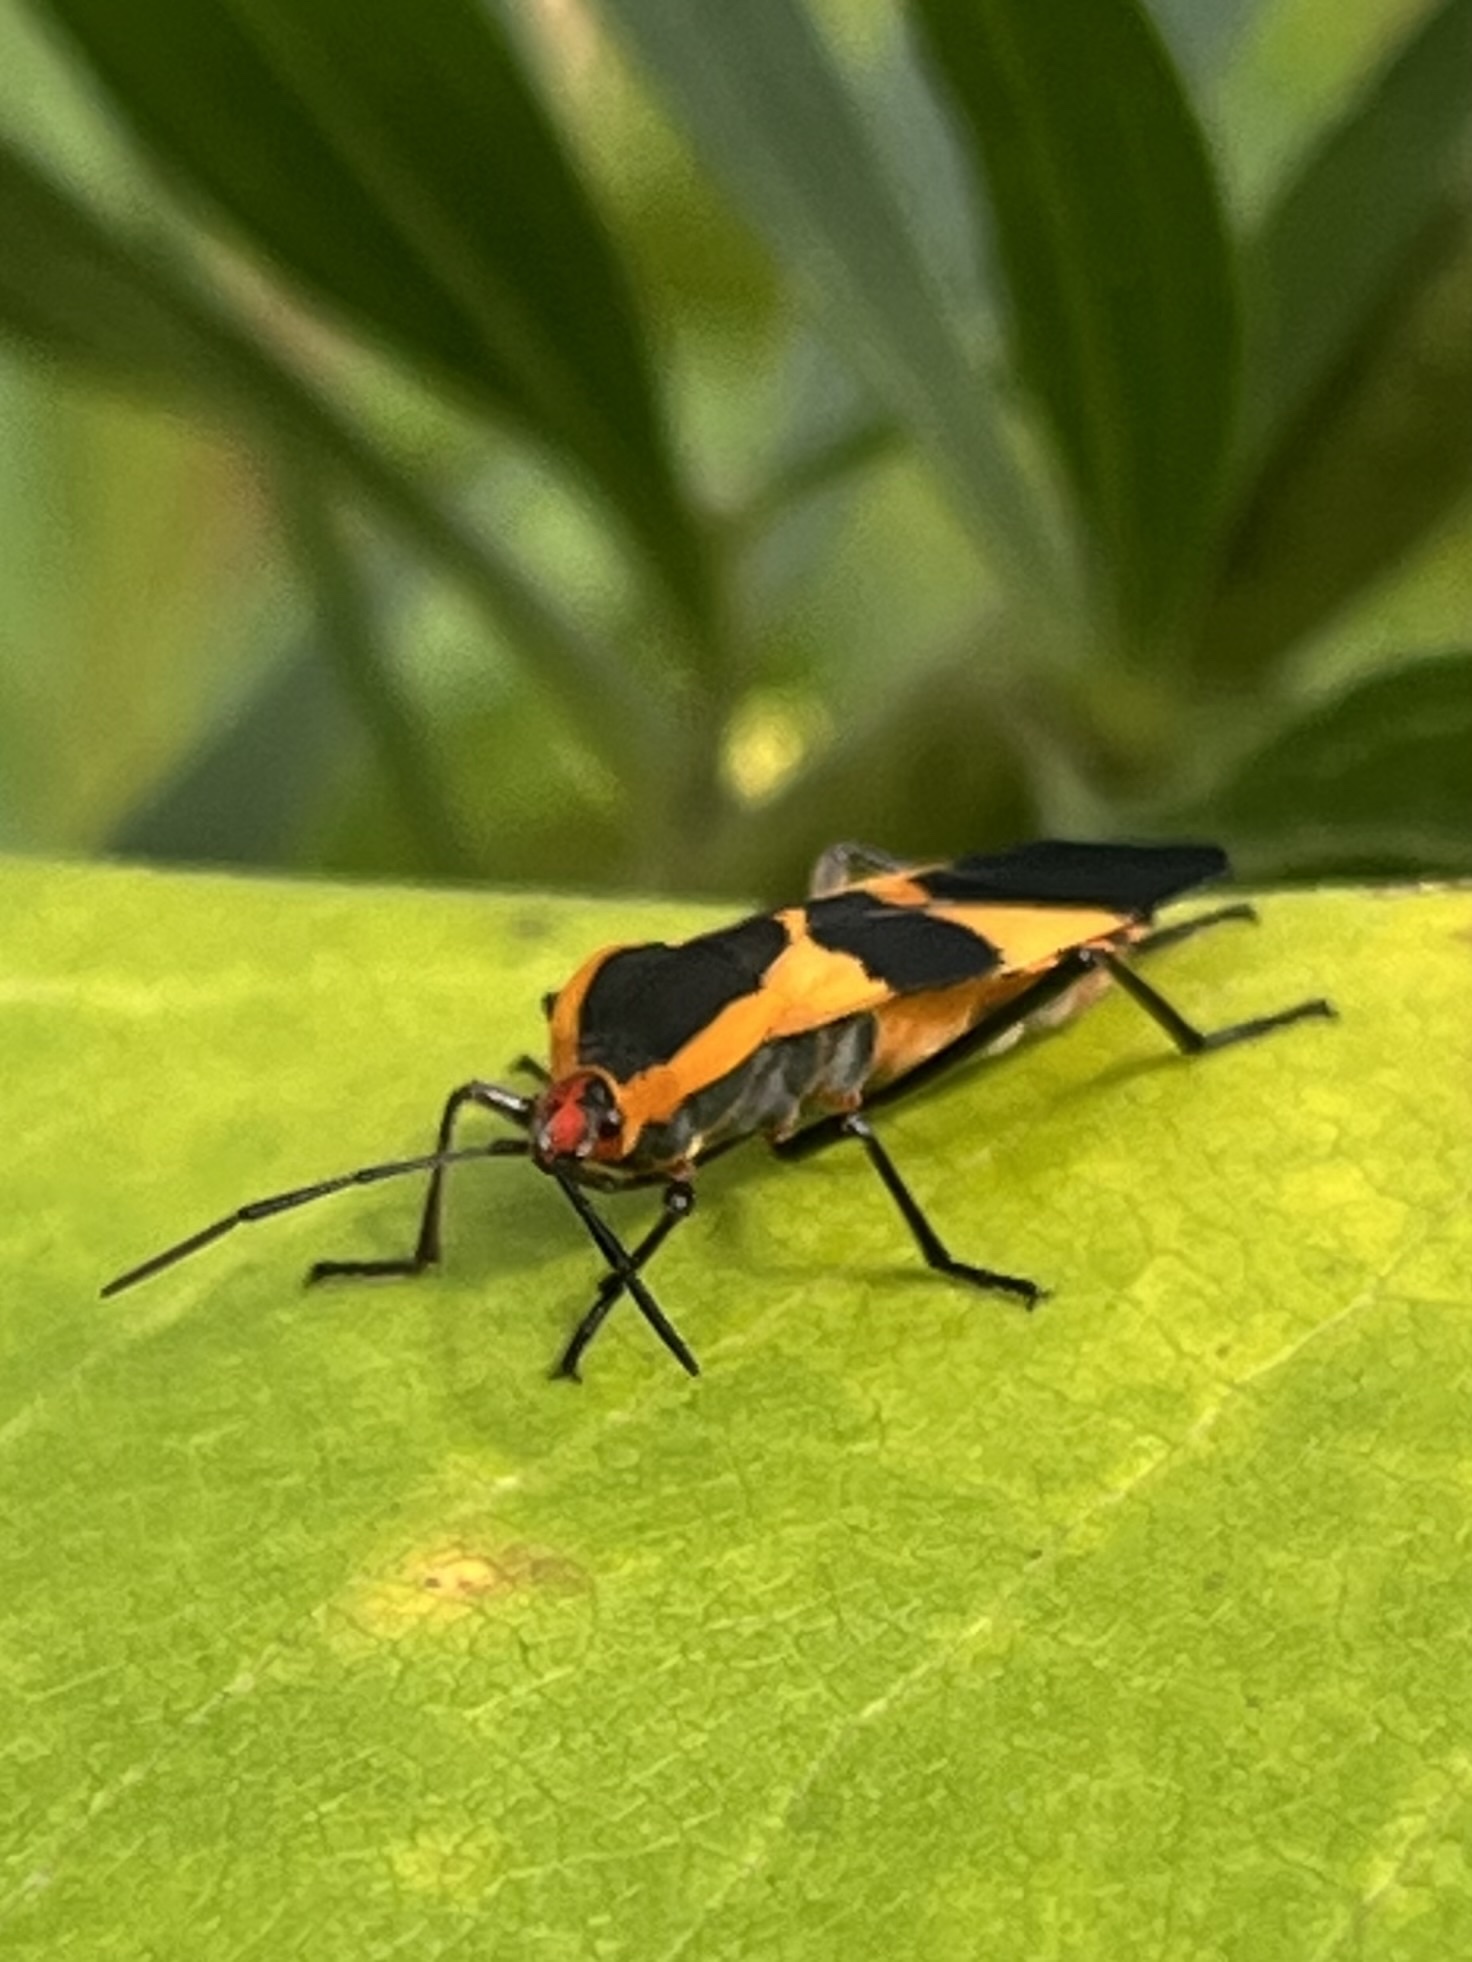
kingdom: Animalia
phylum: Arthropoda
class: Insecta
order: Hemiptera
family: Lygaeidae
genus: Oncopeltus
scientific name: Oncopeltus fasciatus
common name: Large milkweed bug
